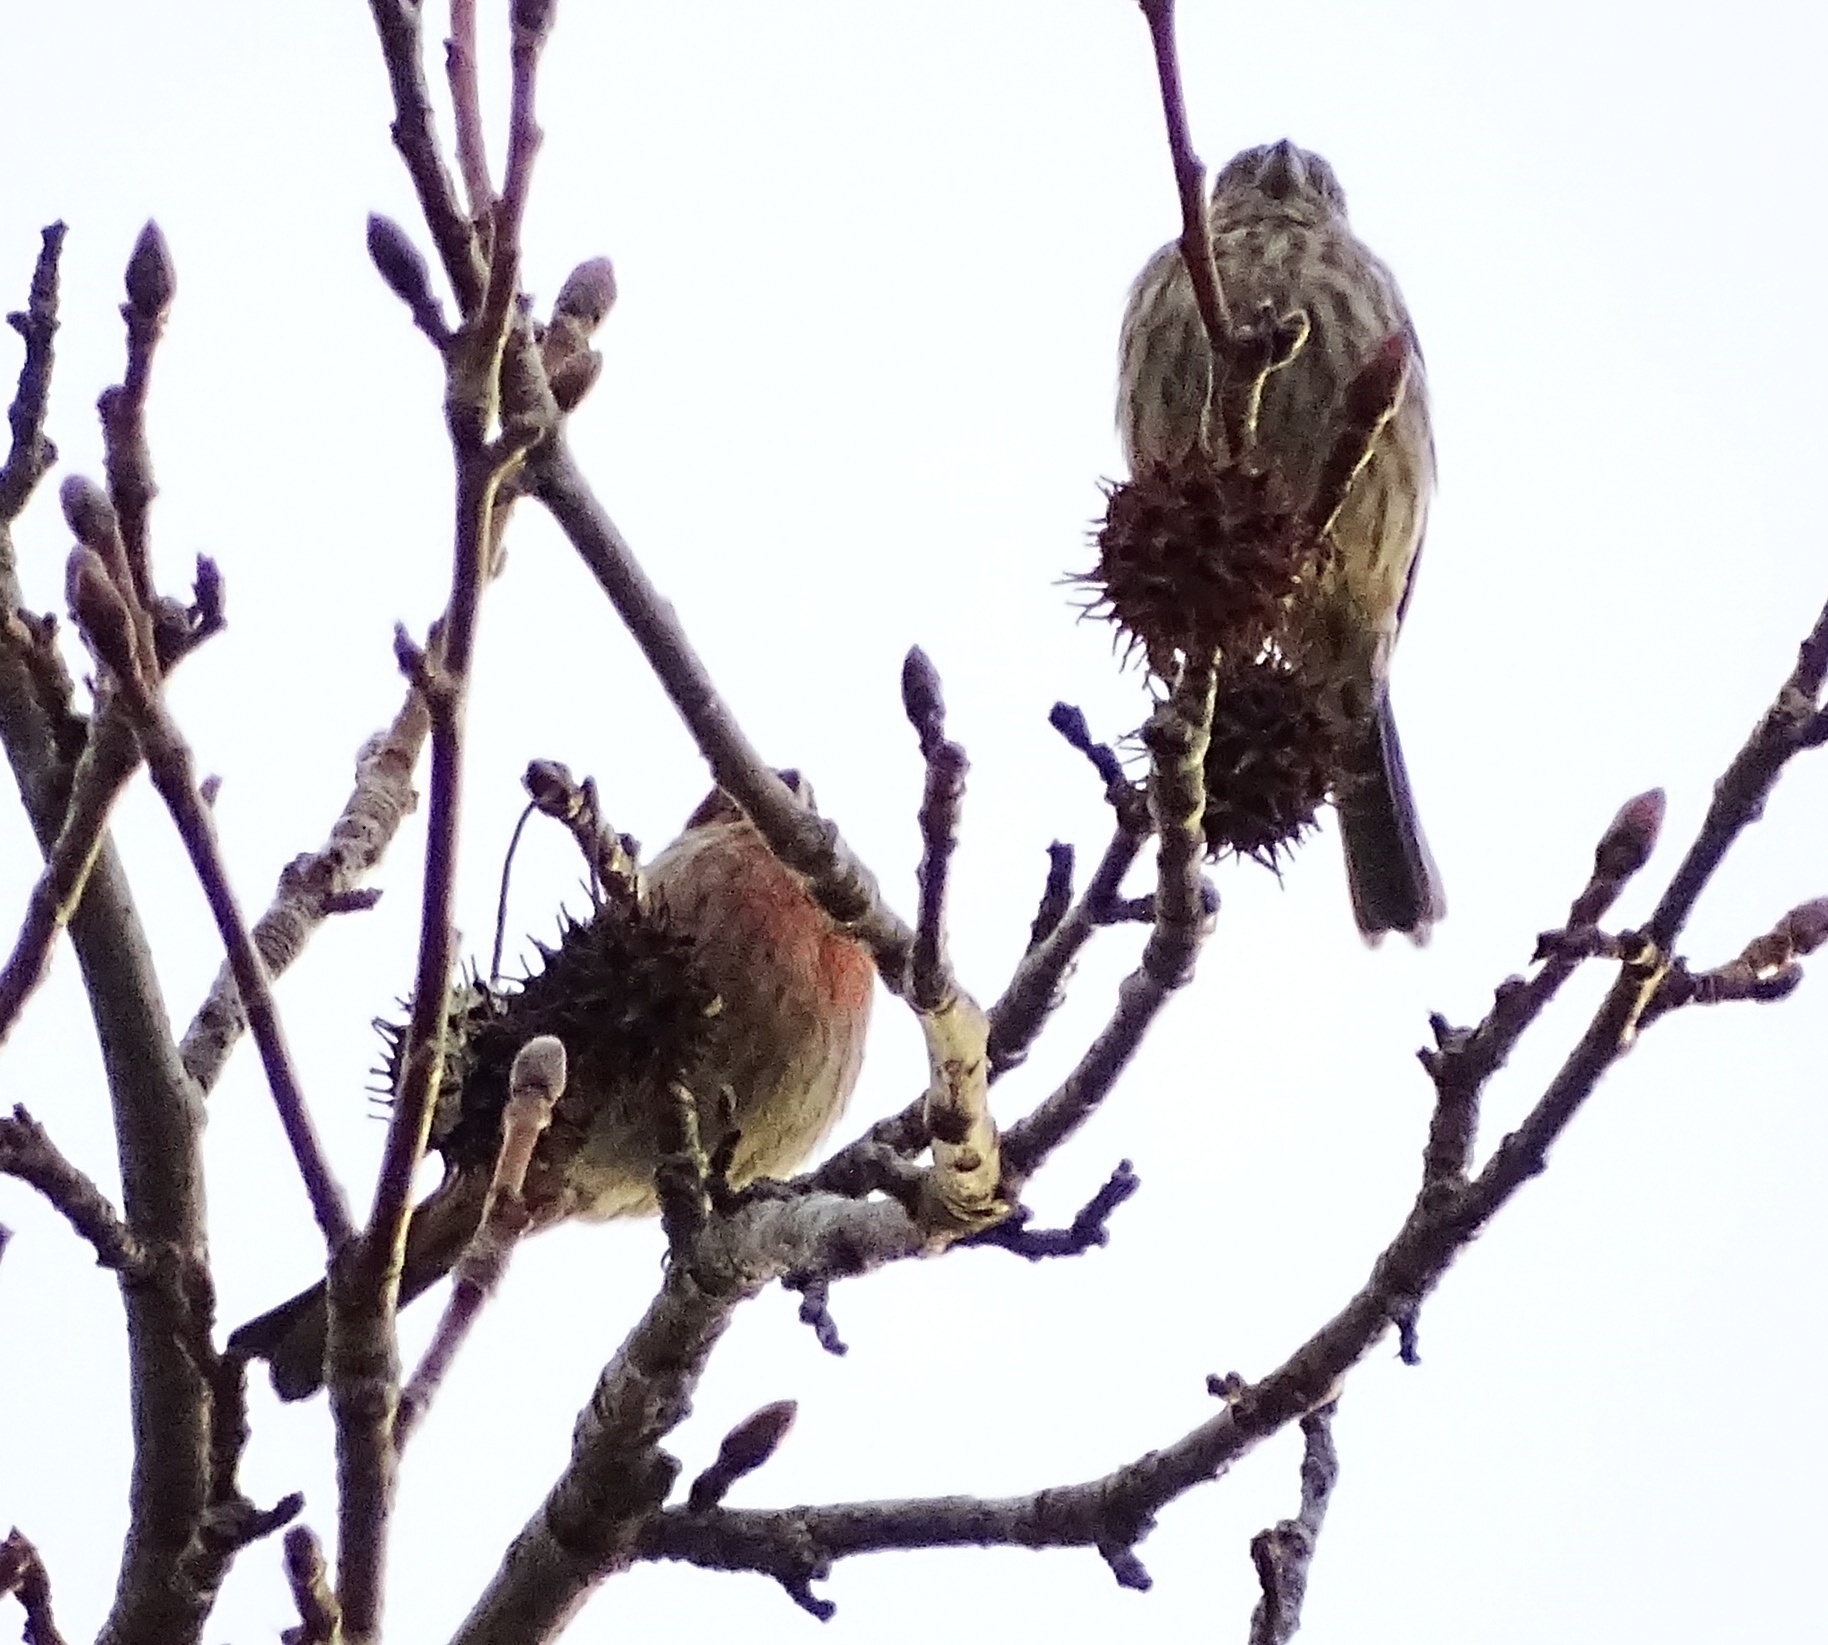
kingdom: Animalia
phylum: Chordata
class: Aves
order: Passeriformes
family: Fringillidae
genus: Haemorhous
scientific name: Haemorhous mexicanus
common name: House finch
